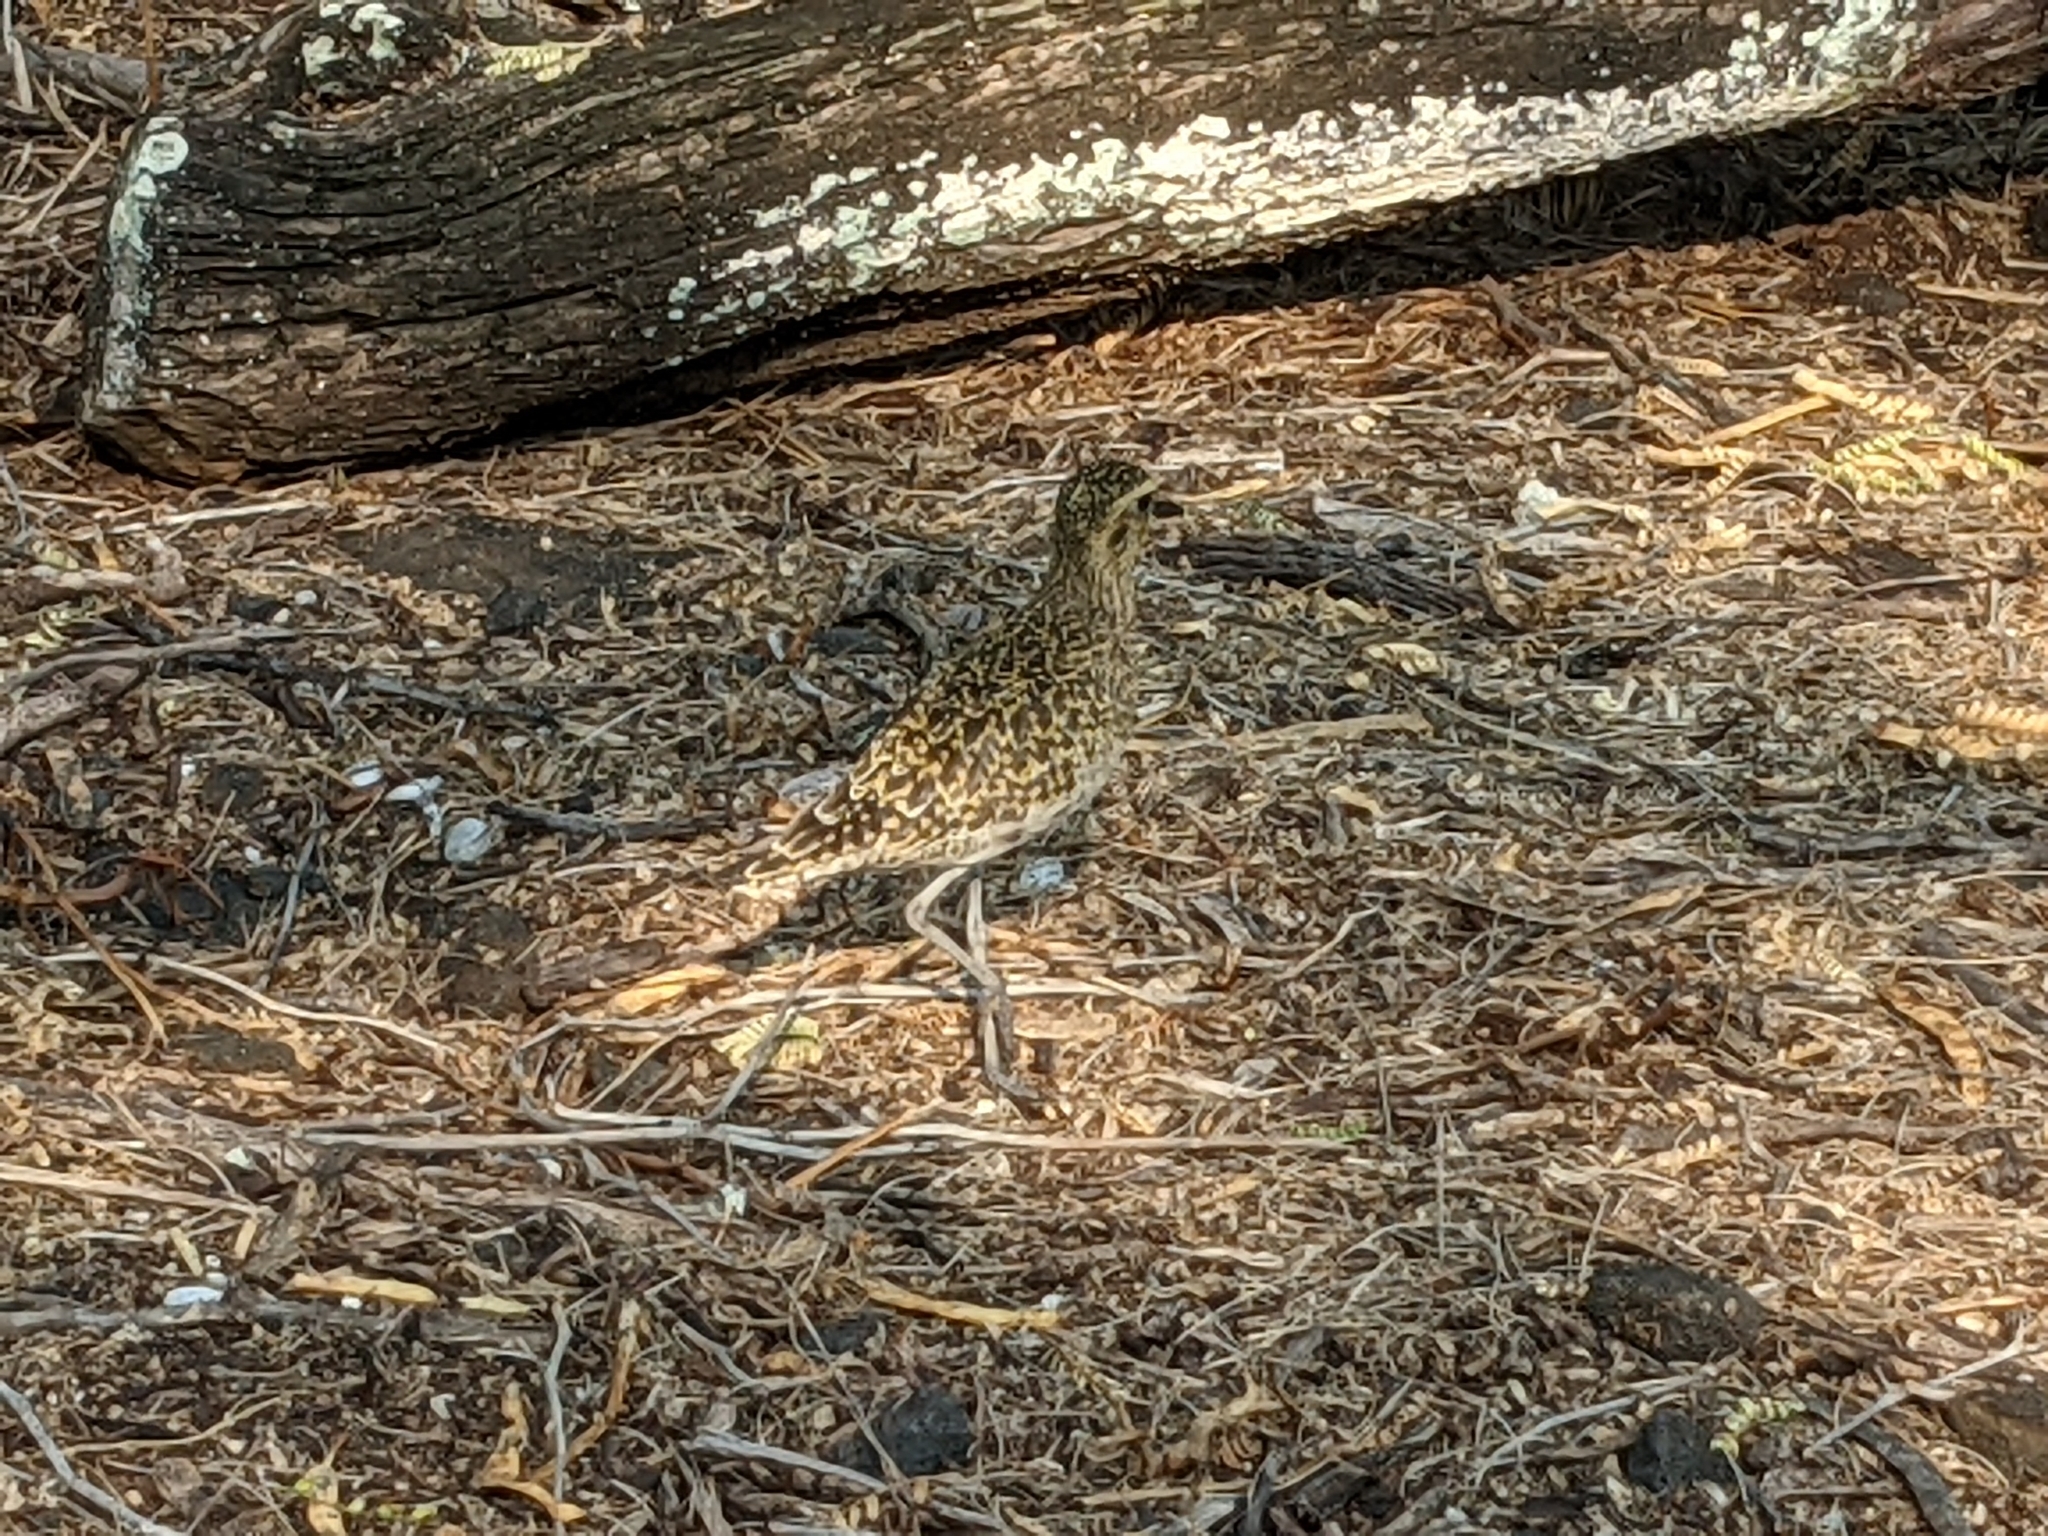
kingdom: Animalia
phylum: Chordata
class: Aves
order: Charadriiformes
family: Charadriidae
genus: Pluvialis
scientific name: Pluvialis fulva
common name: Pacific golden plover
